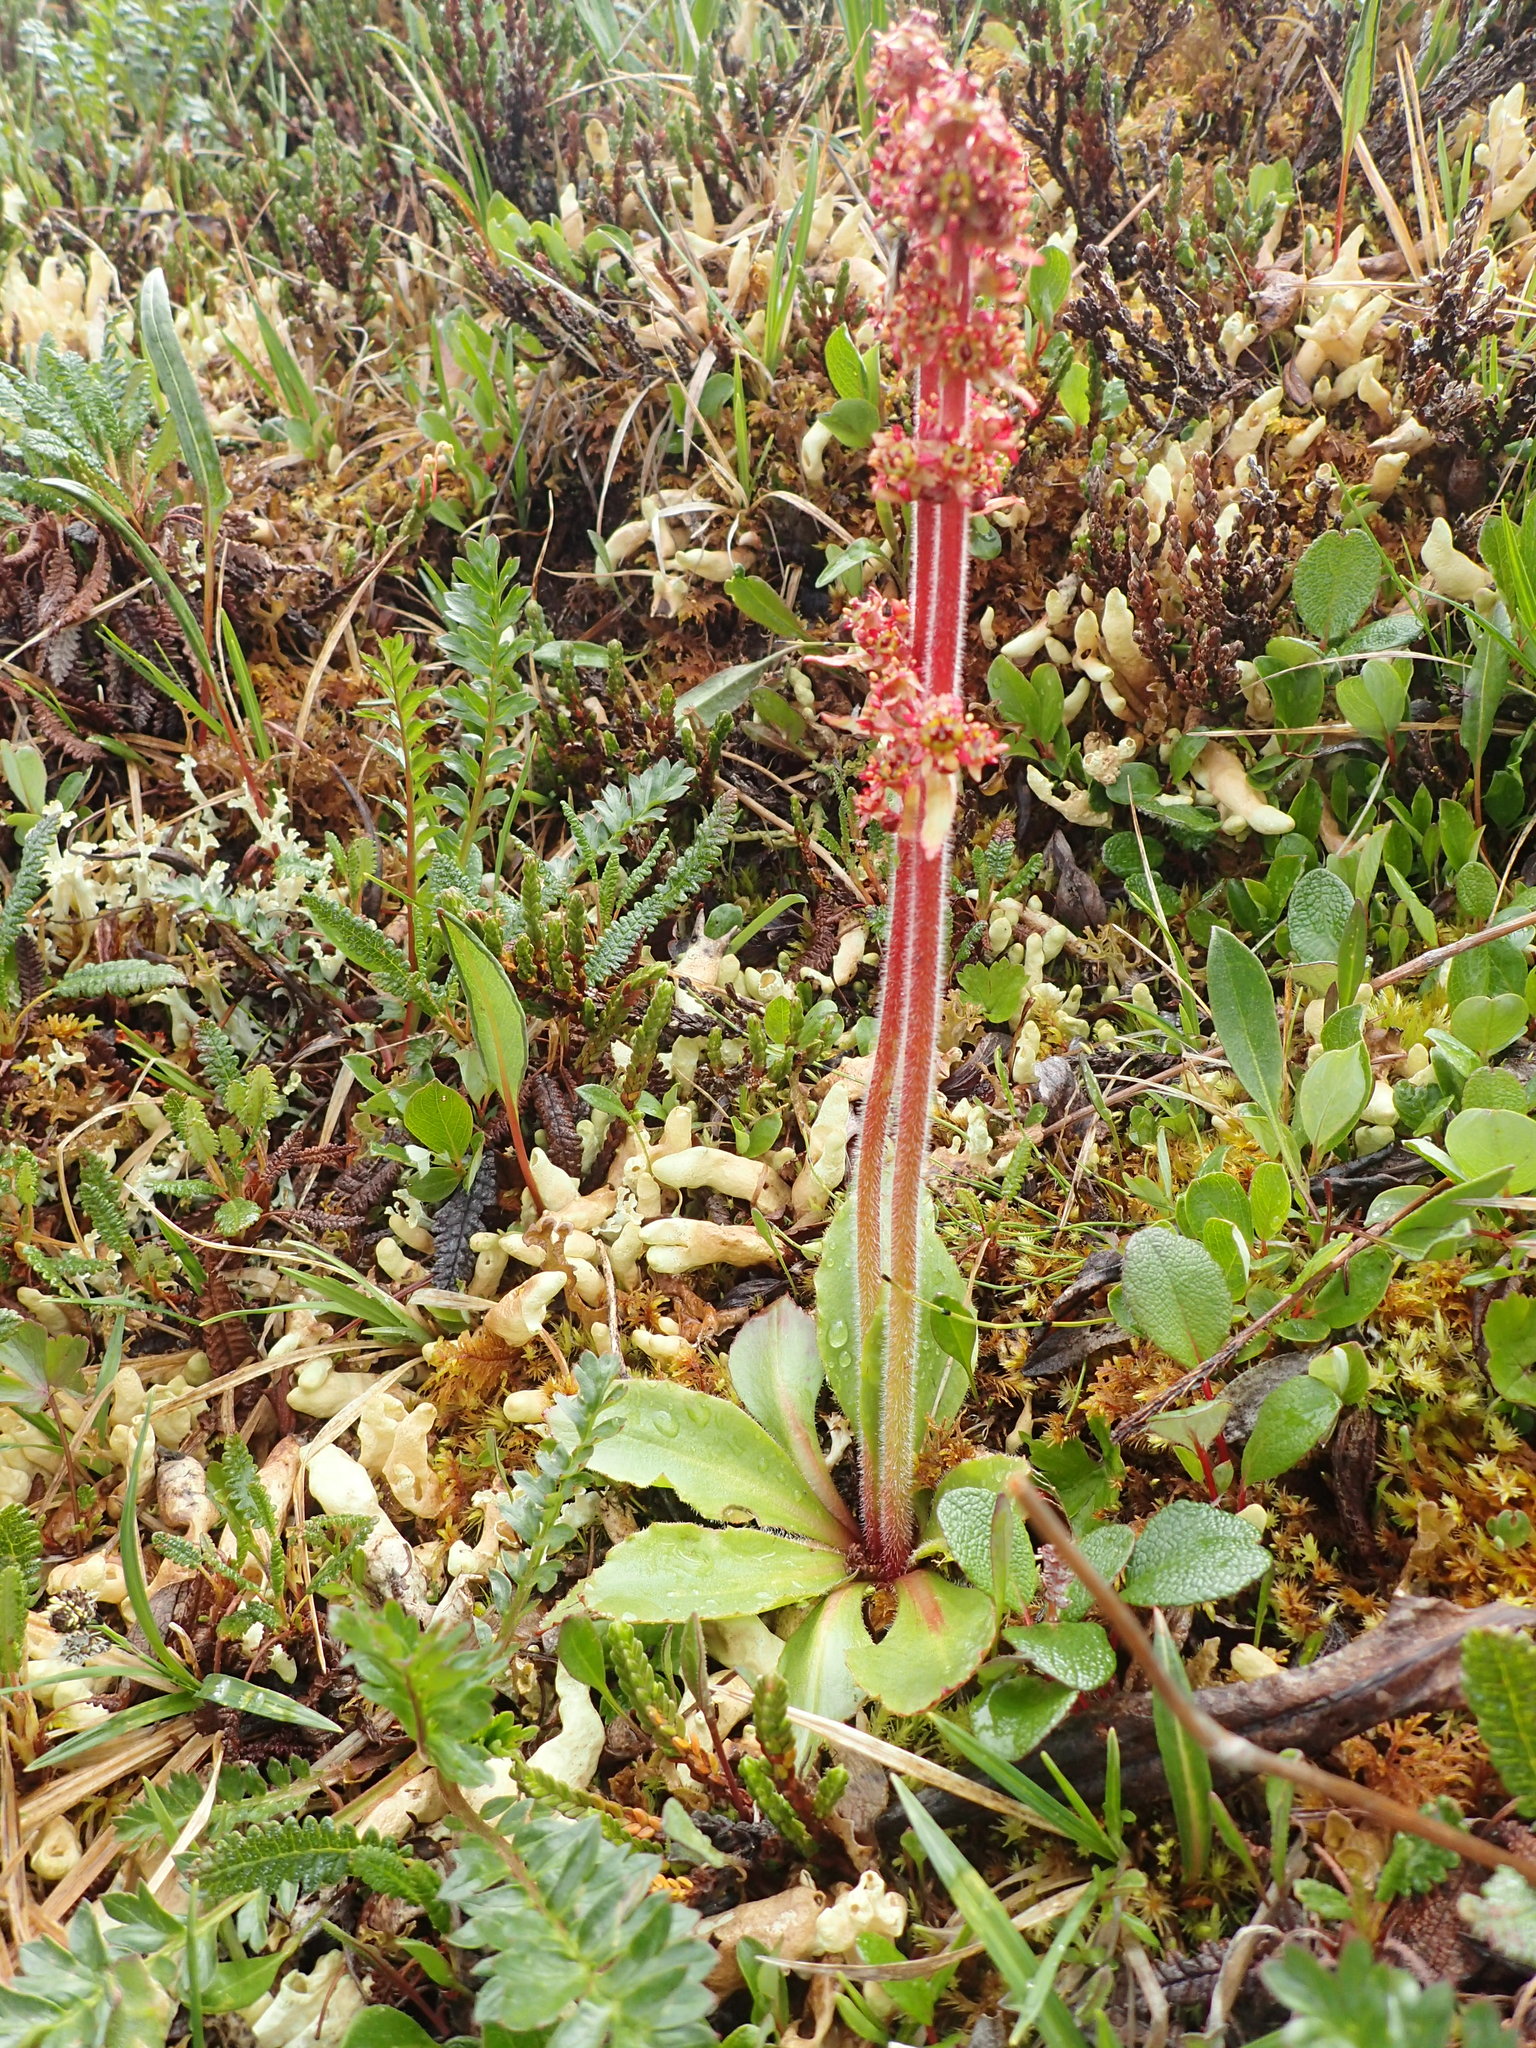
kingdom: Plantae
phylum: Tracheophyta
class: Magnoliopsida
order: Saxifragales
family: Saxifragaceae
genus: Micranthes
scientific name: Micranthes hieraciifolia
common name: Hawkweed-leaved saxifrage
